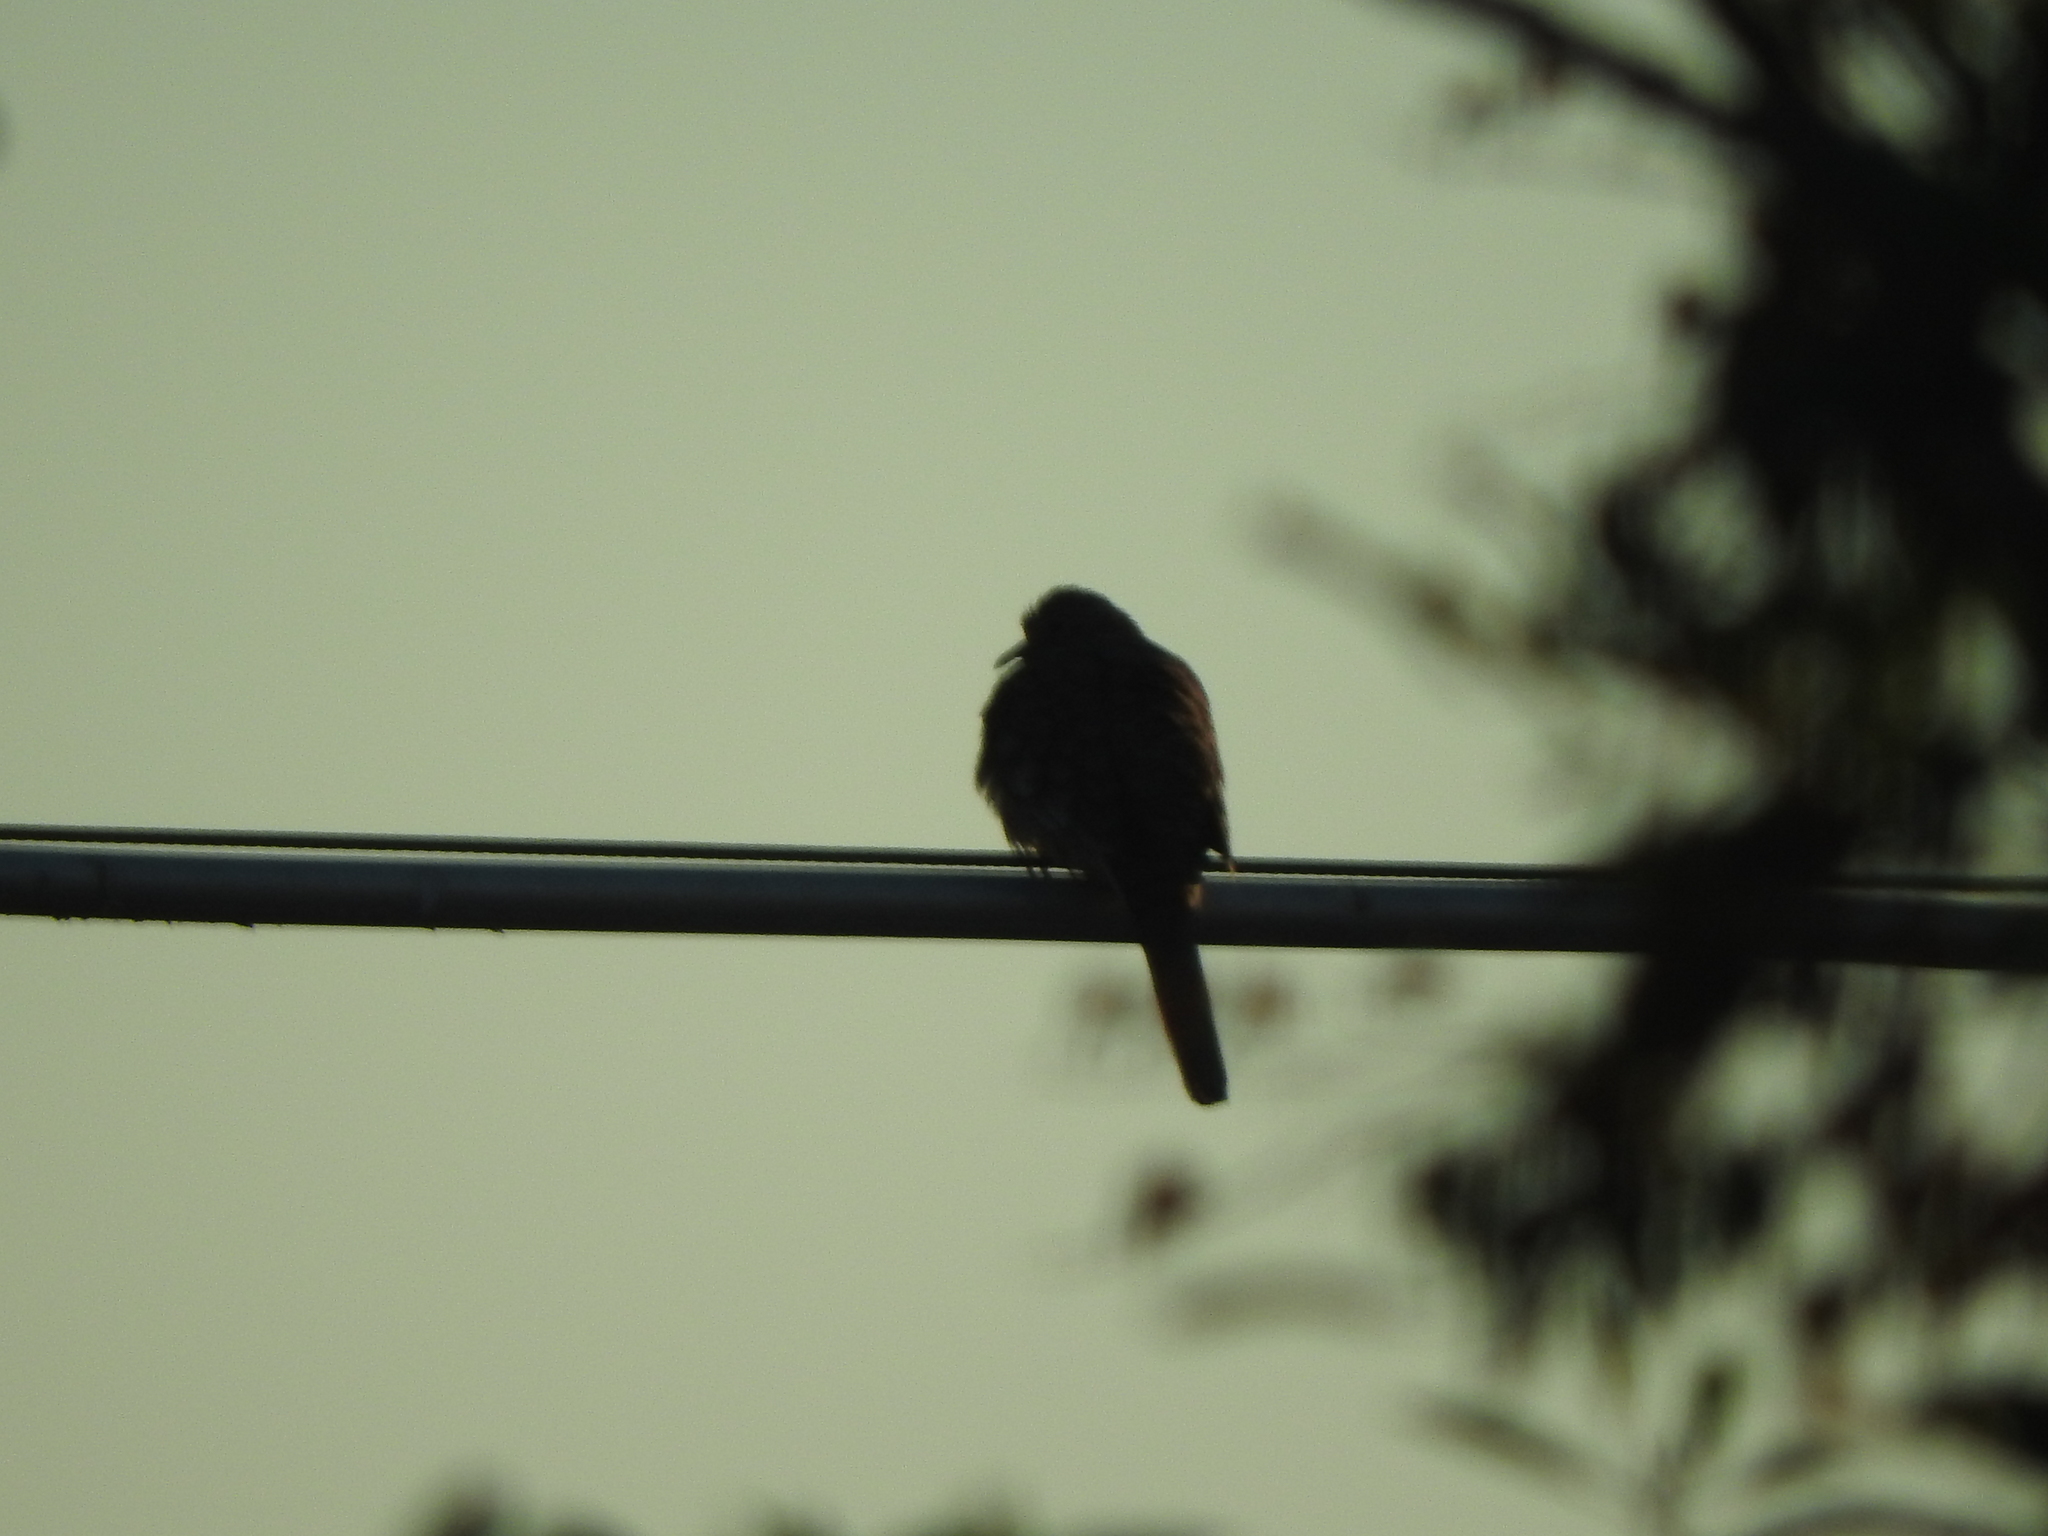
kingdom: Animalia
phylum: Chordata
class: Aves
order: Columbiformes
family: Columbidae
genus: Columbina
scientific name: Columbina inca
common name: Inca dove
